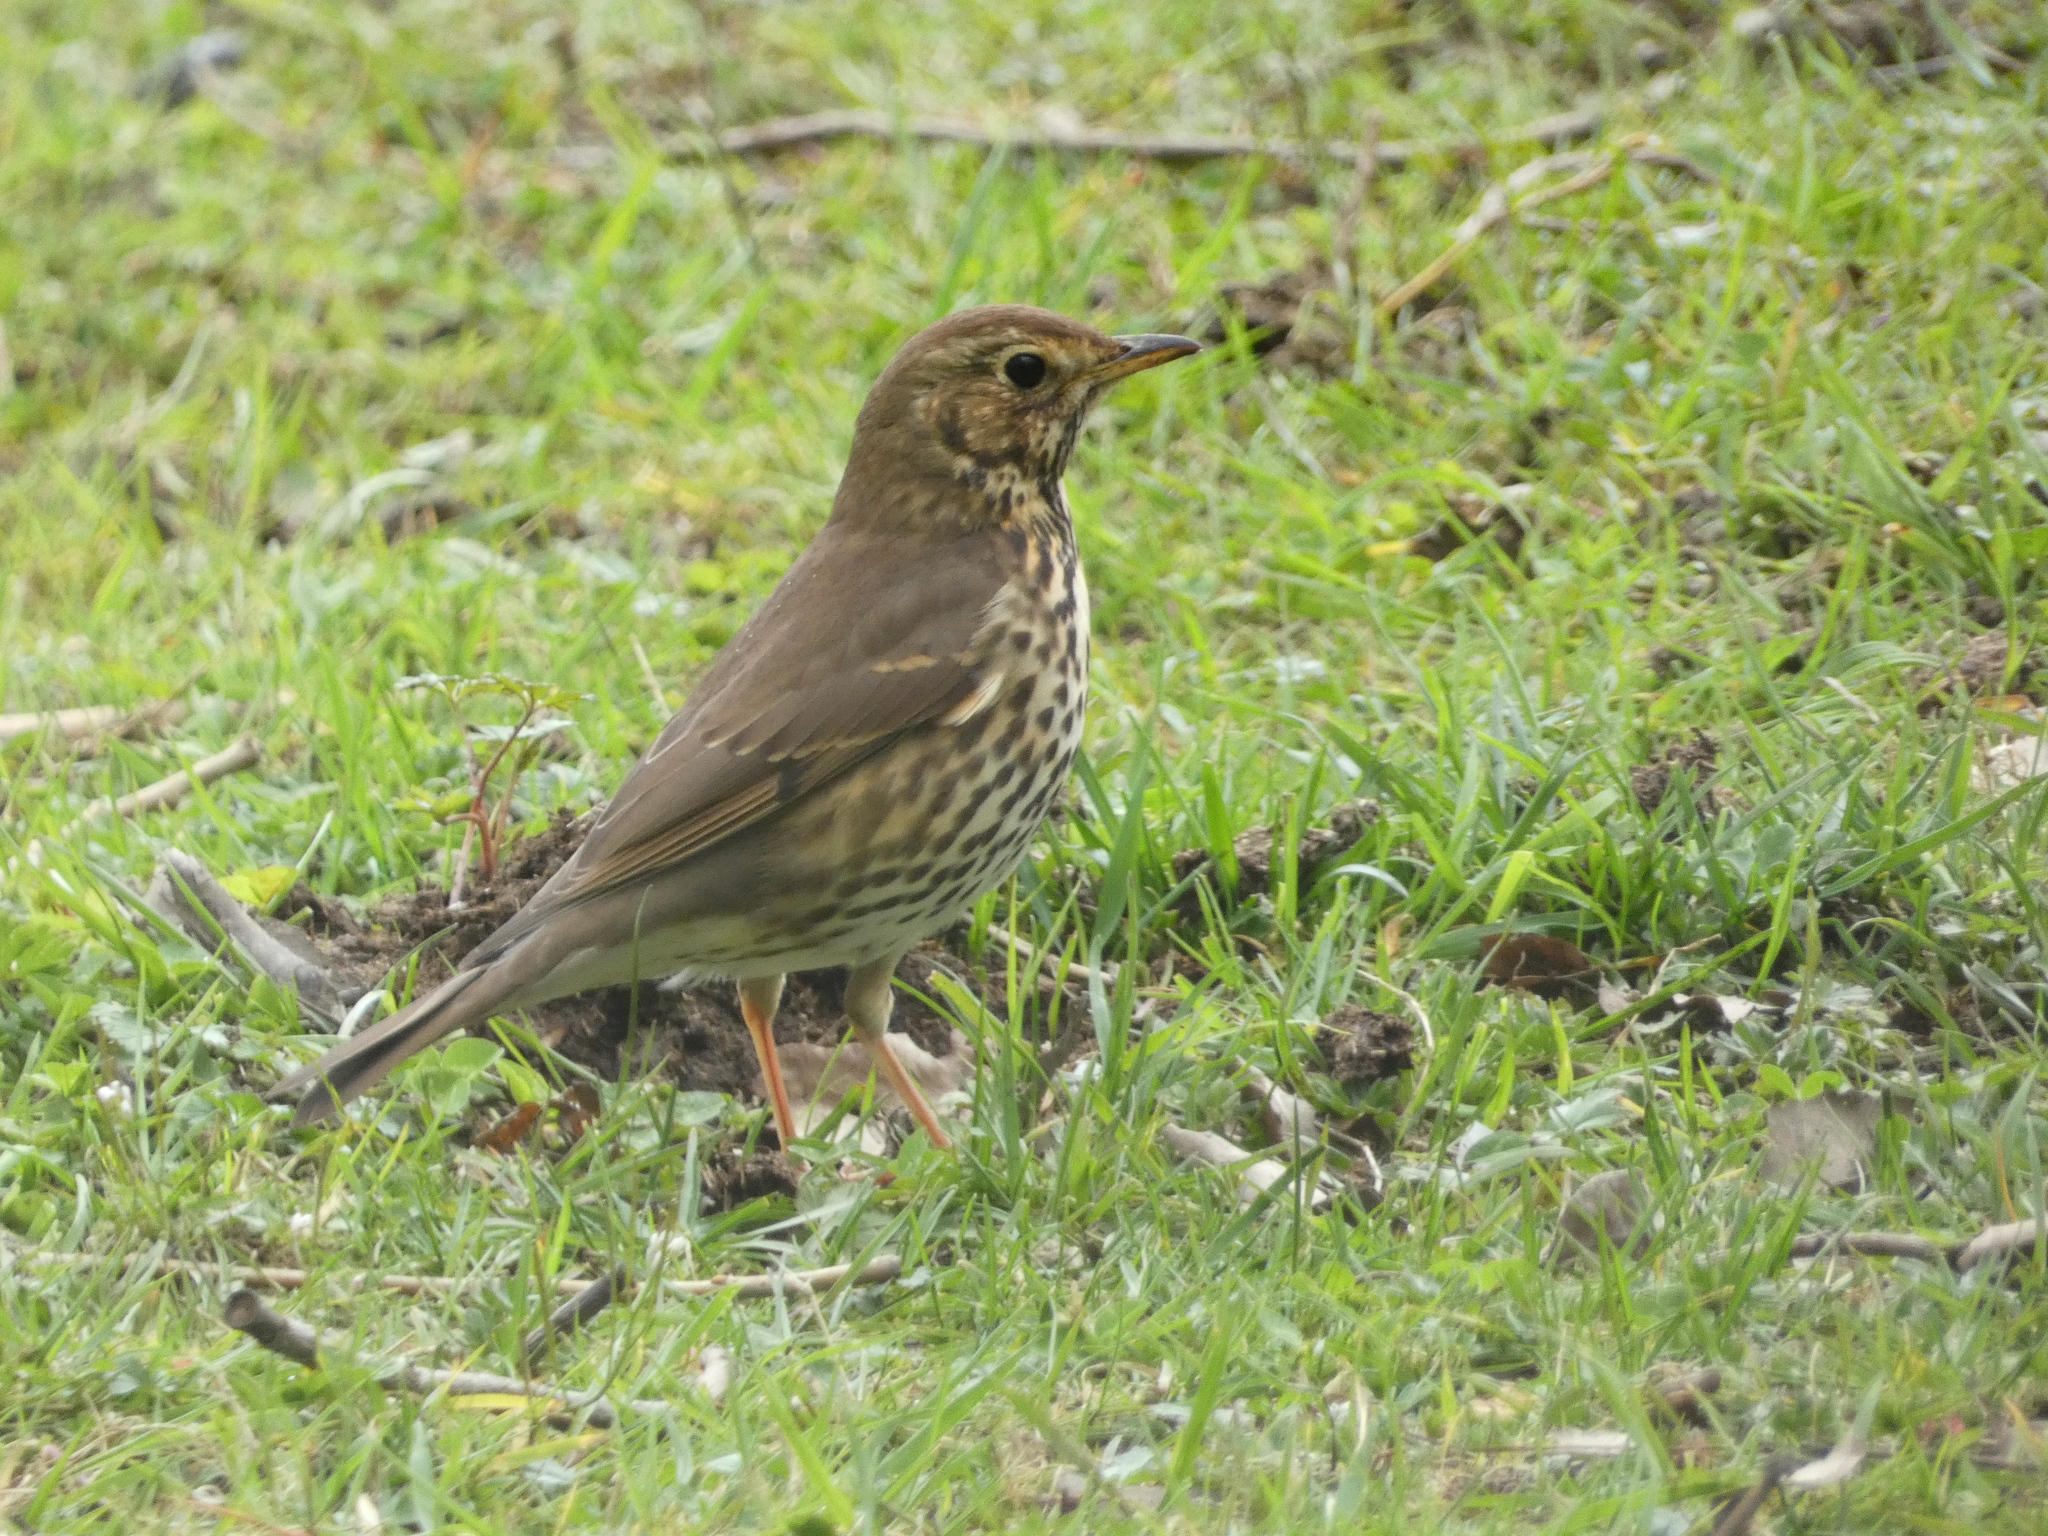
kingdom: Animalia
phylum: Chordata
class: Aves
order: Passeriformes
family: Turdidae
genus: Turdus
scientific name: Turdus philomelos
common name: Song thrush
